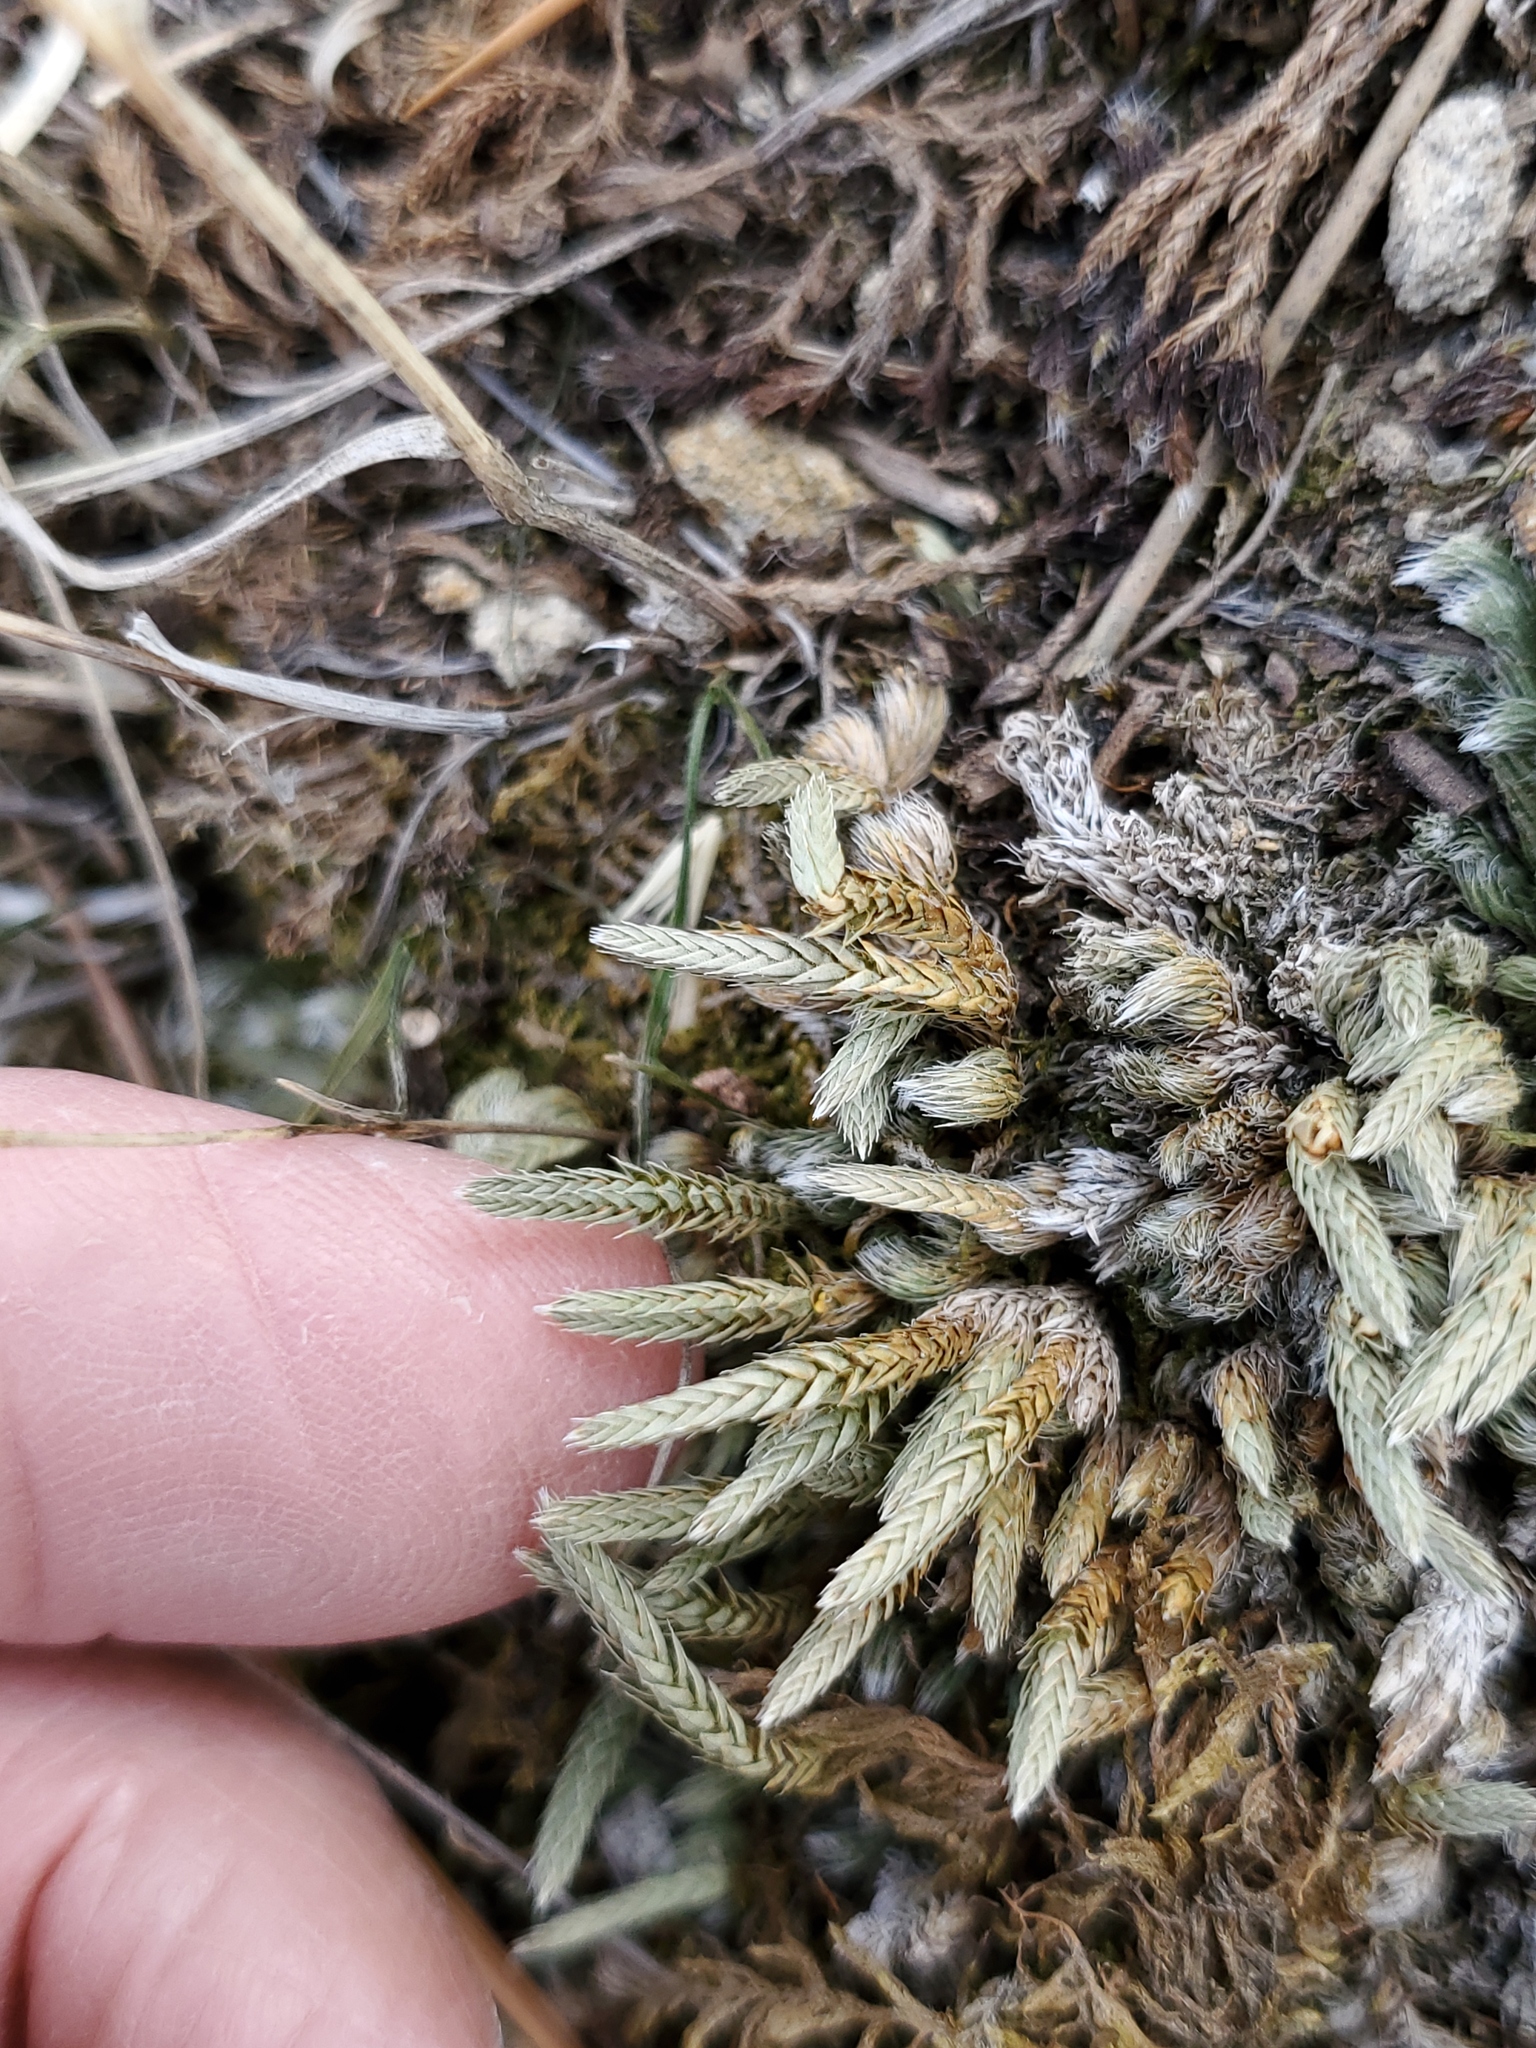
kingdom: Plantae
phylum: Tracheophyta
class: Lycopodiopsida
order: Selaginellales
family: Selaginellaceae
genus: Selaginella
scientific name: Selaginella densa
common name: Mountain spike-moss
